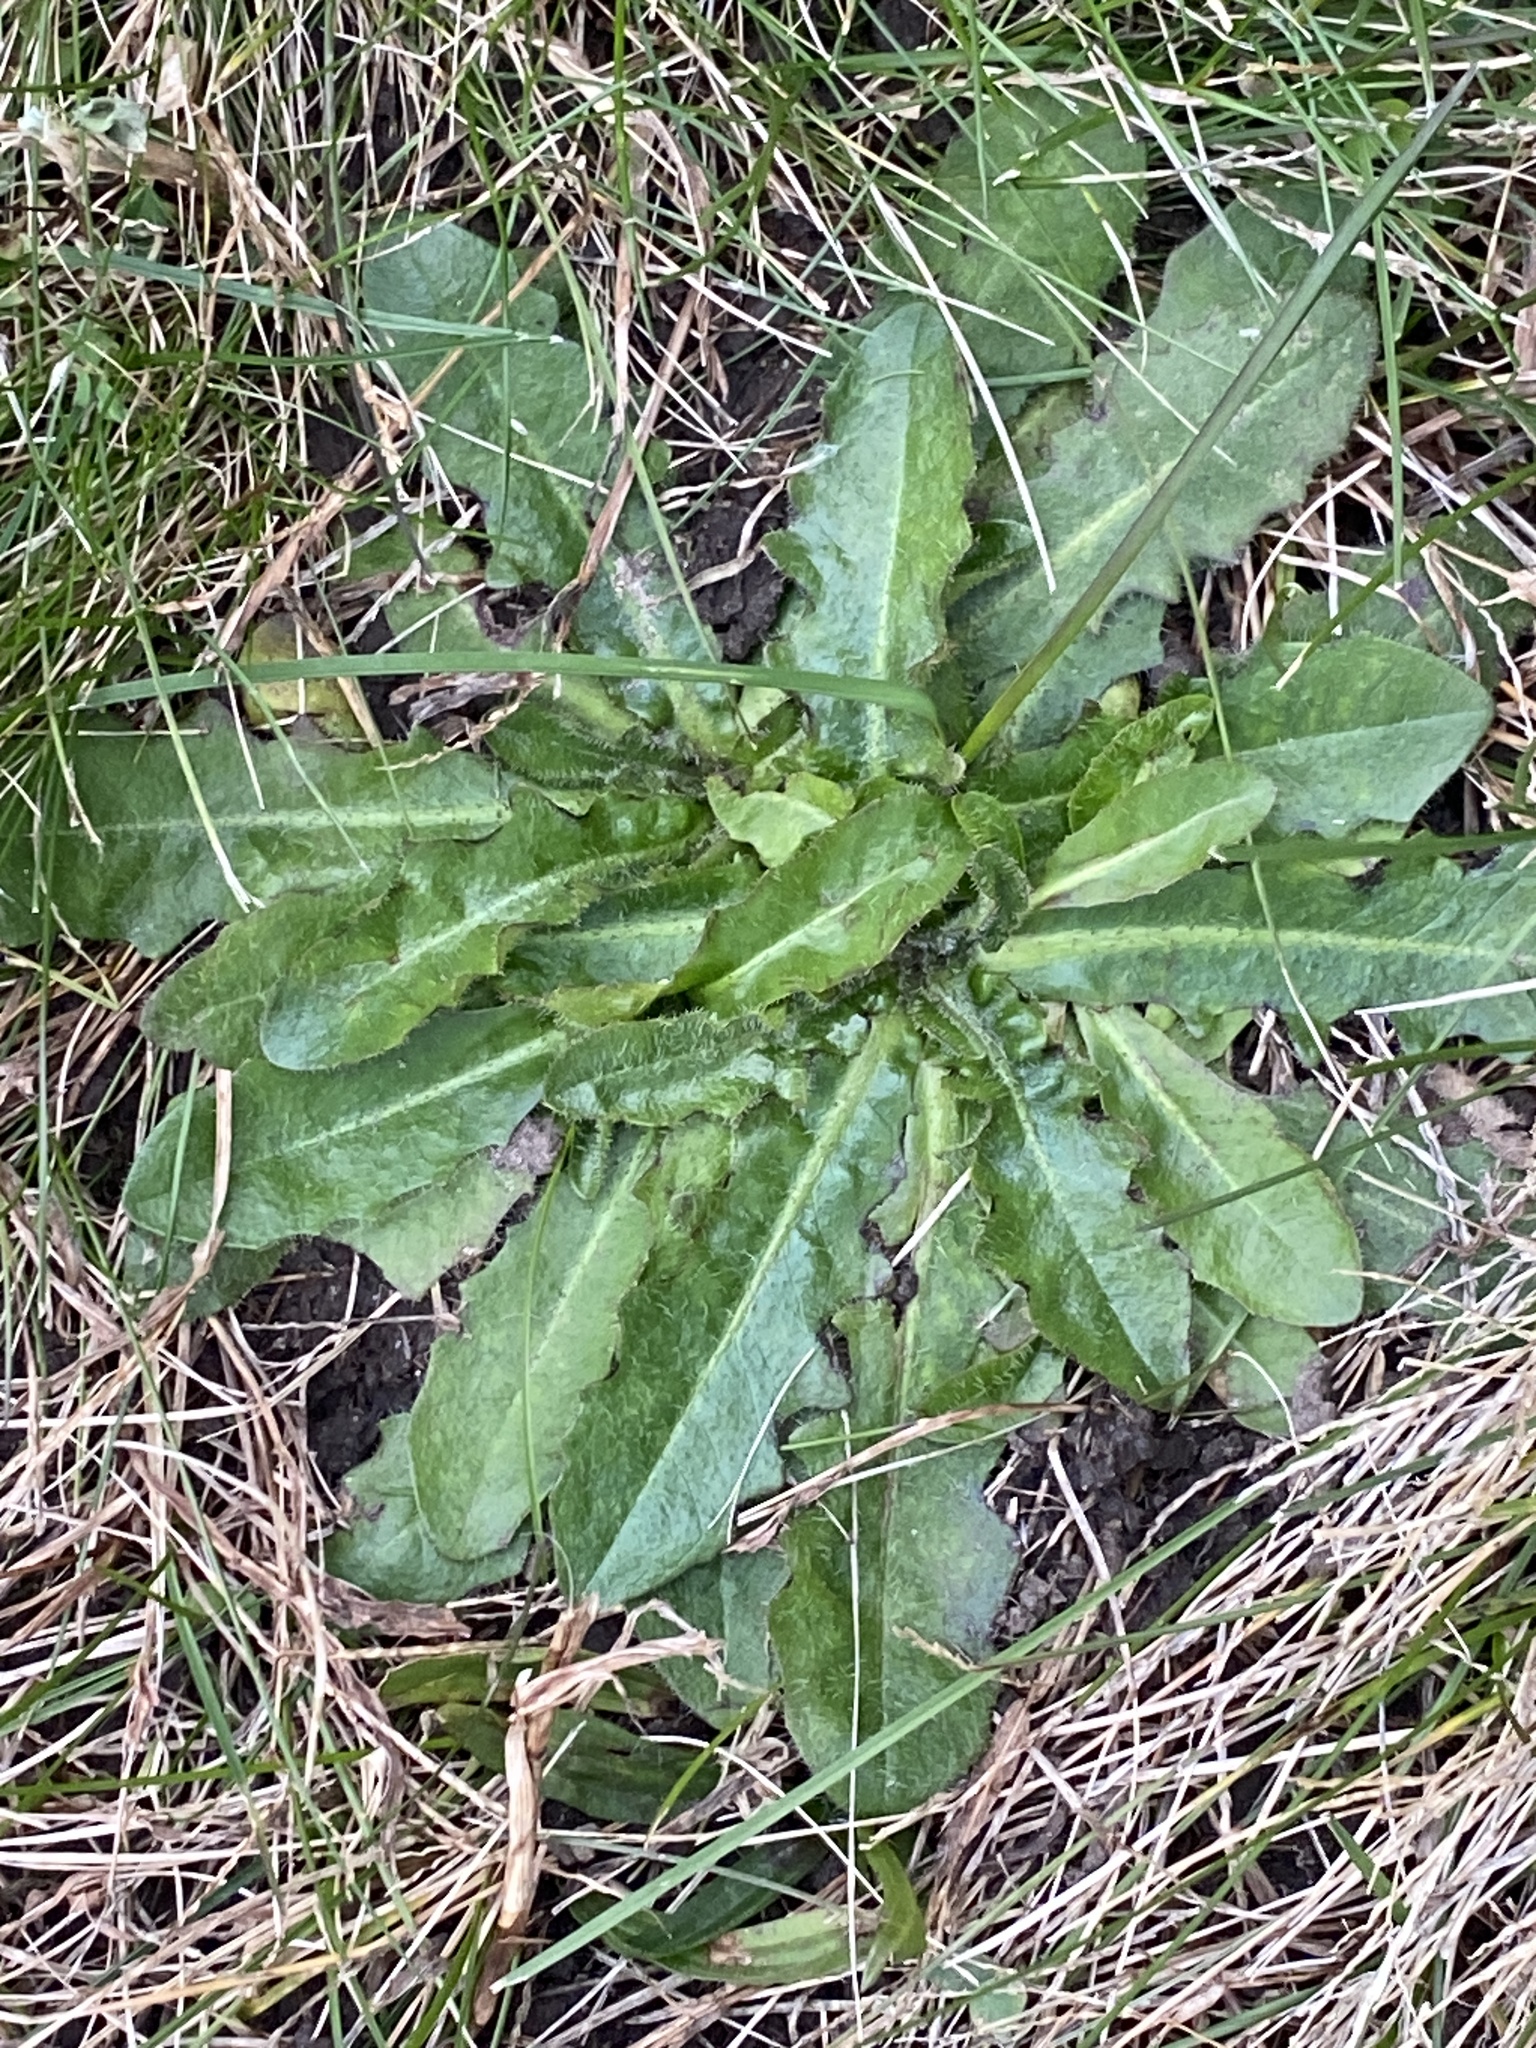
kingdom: Plantae
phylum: Tracheophyta
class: Magnoliopsida
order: Asterales
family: Asteraceae
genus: Hypochaeris
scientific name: Hypochaeris radicata
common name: Flatweed
